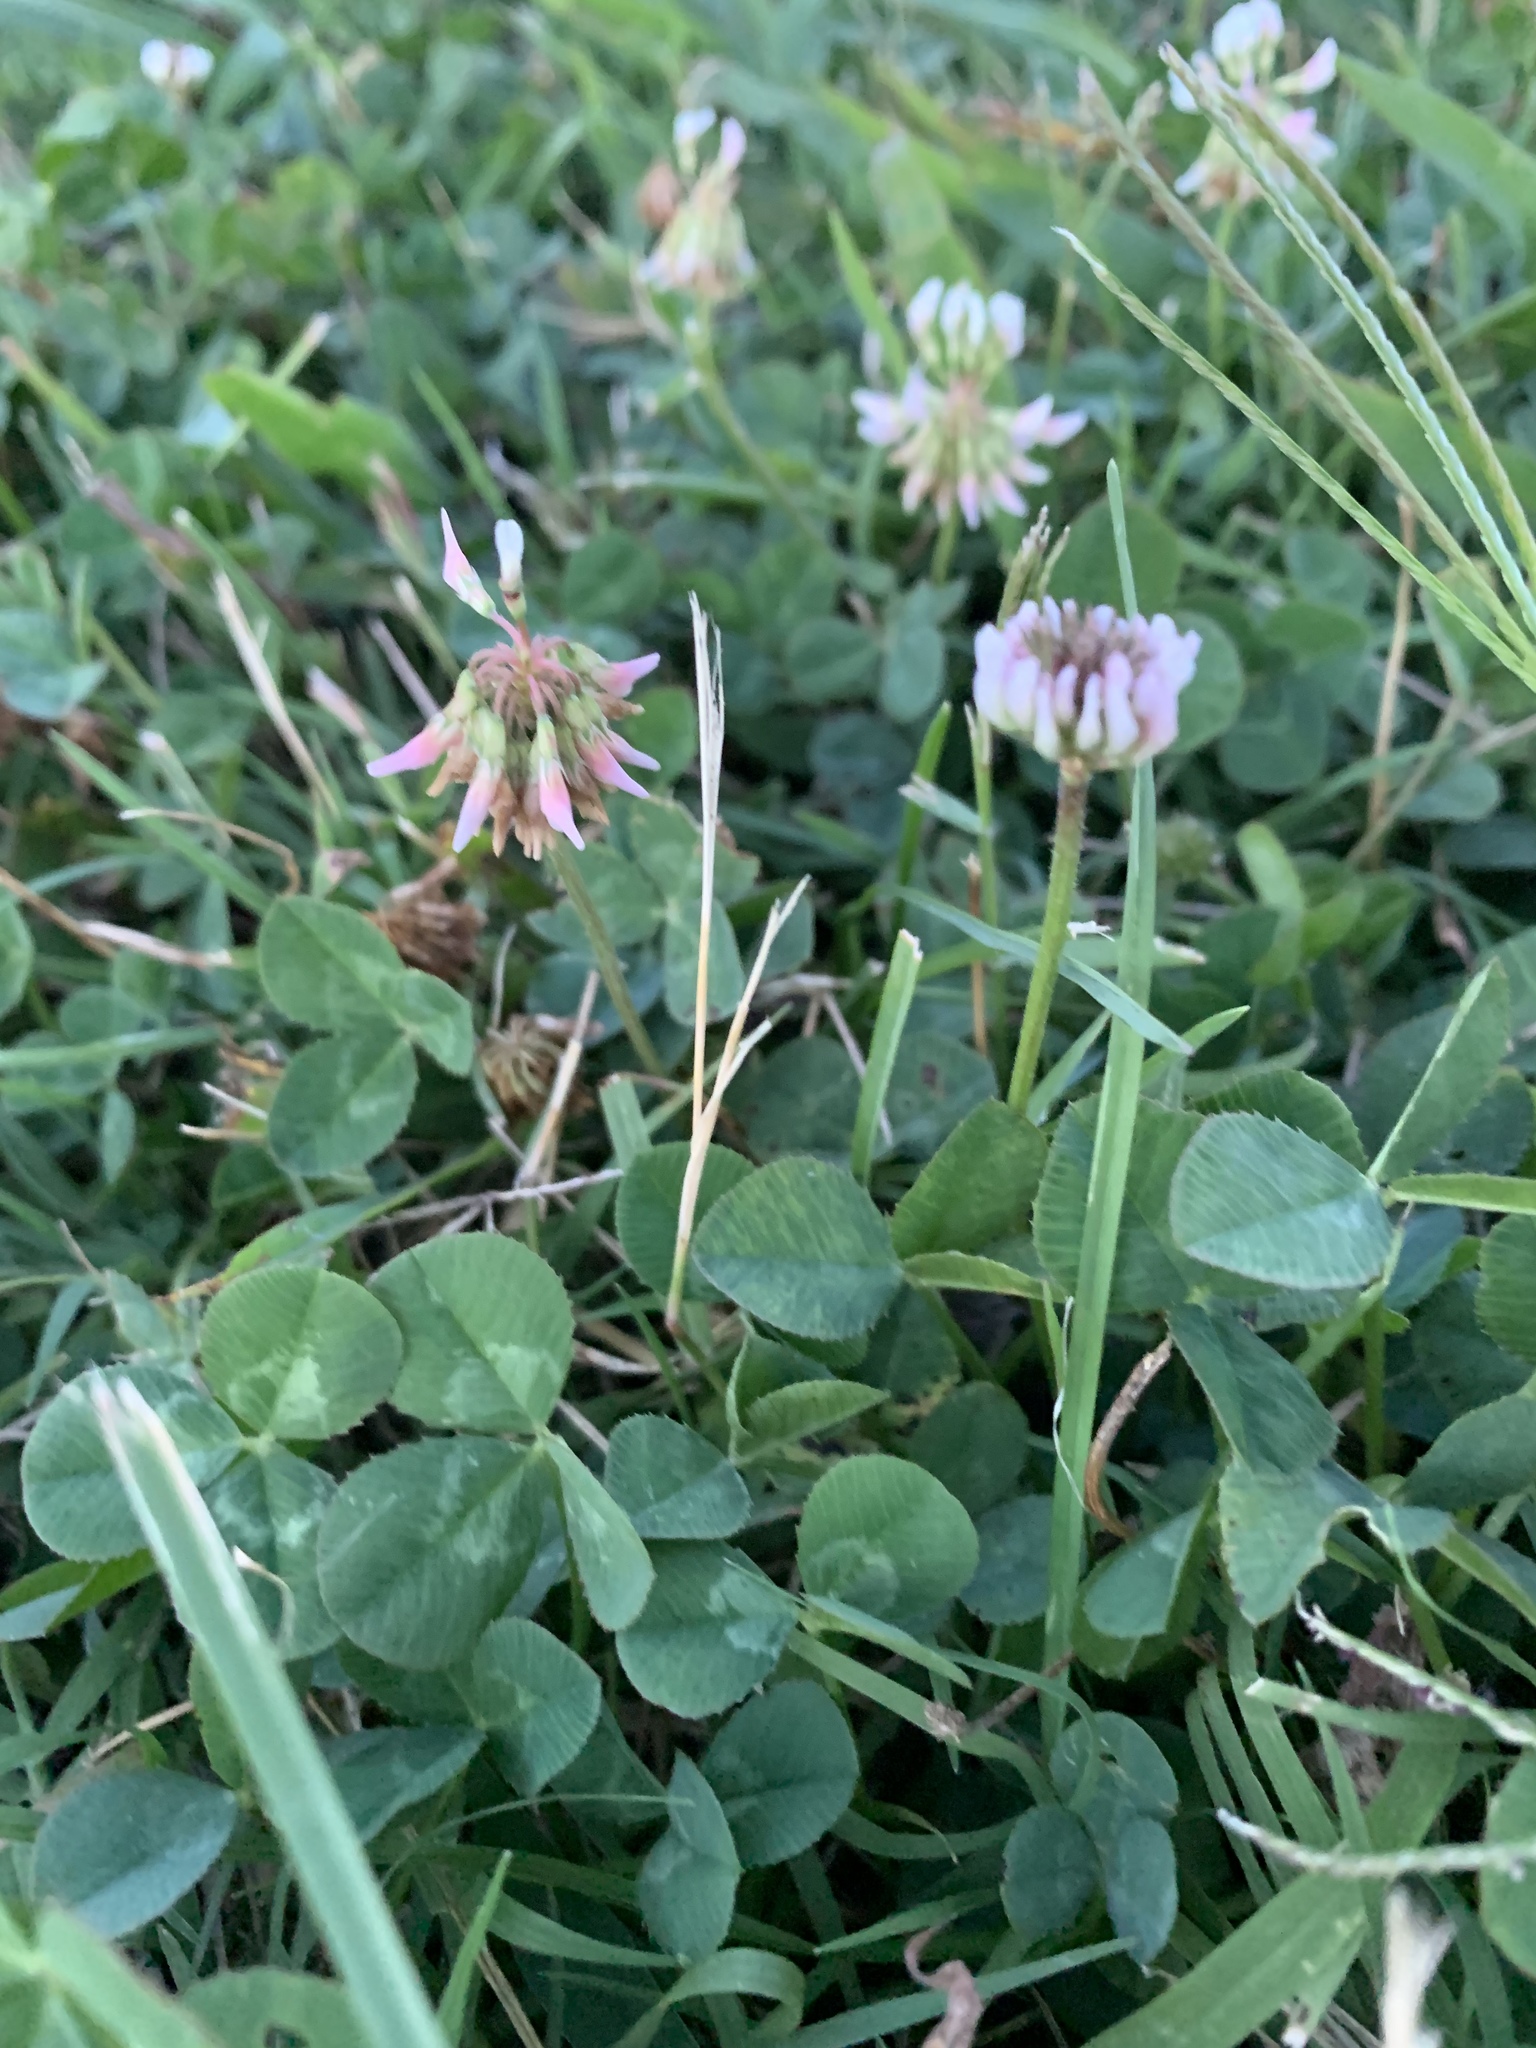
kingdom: Plantae
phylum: Tracheophyta
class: Magnoliopsida
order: Fabales
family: Fabaceae
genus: Trifolium
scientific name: Trifolium repens
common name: White clover
